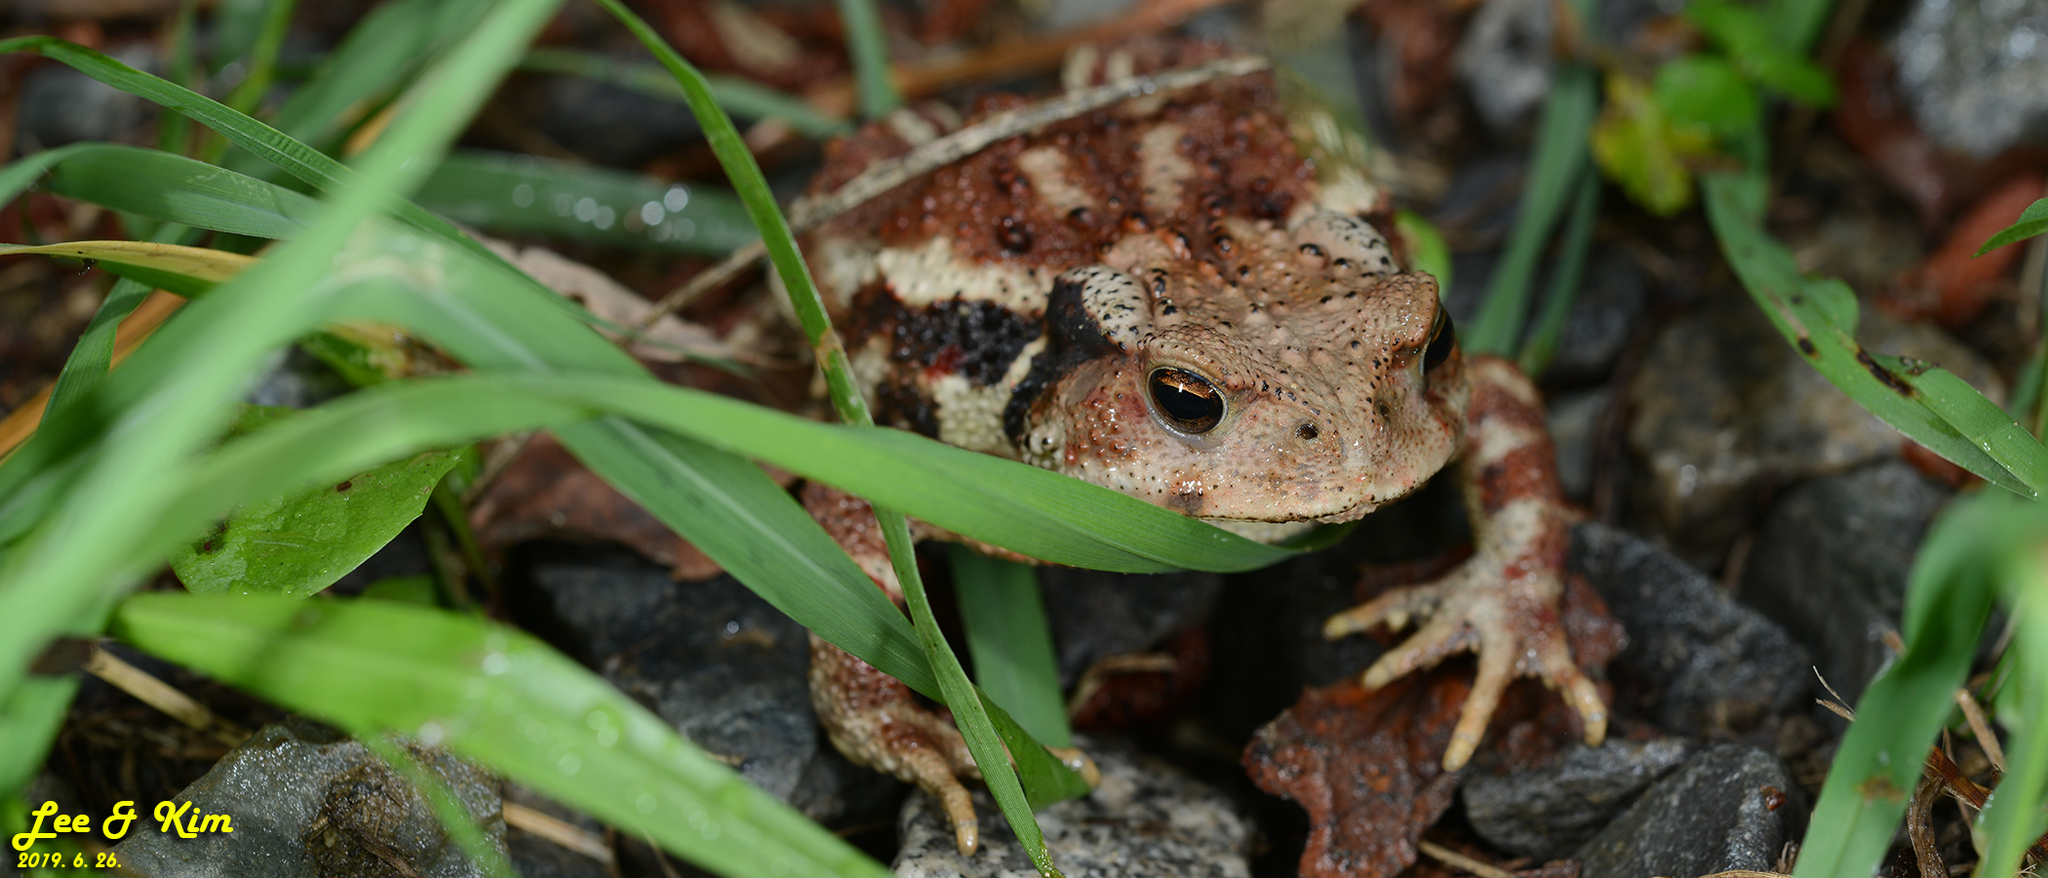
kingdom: Animalia
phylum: Chordata
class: Amphibia
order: Anura
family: Bufonidae
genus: Bufo
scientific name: Bufo gargarizans
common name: Asiatic toad
